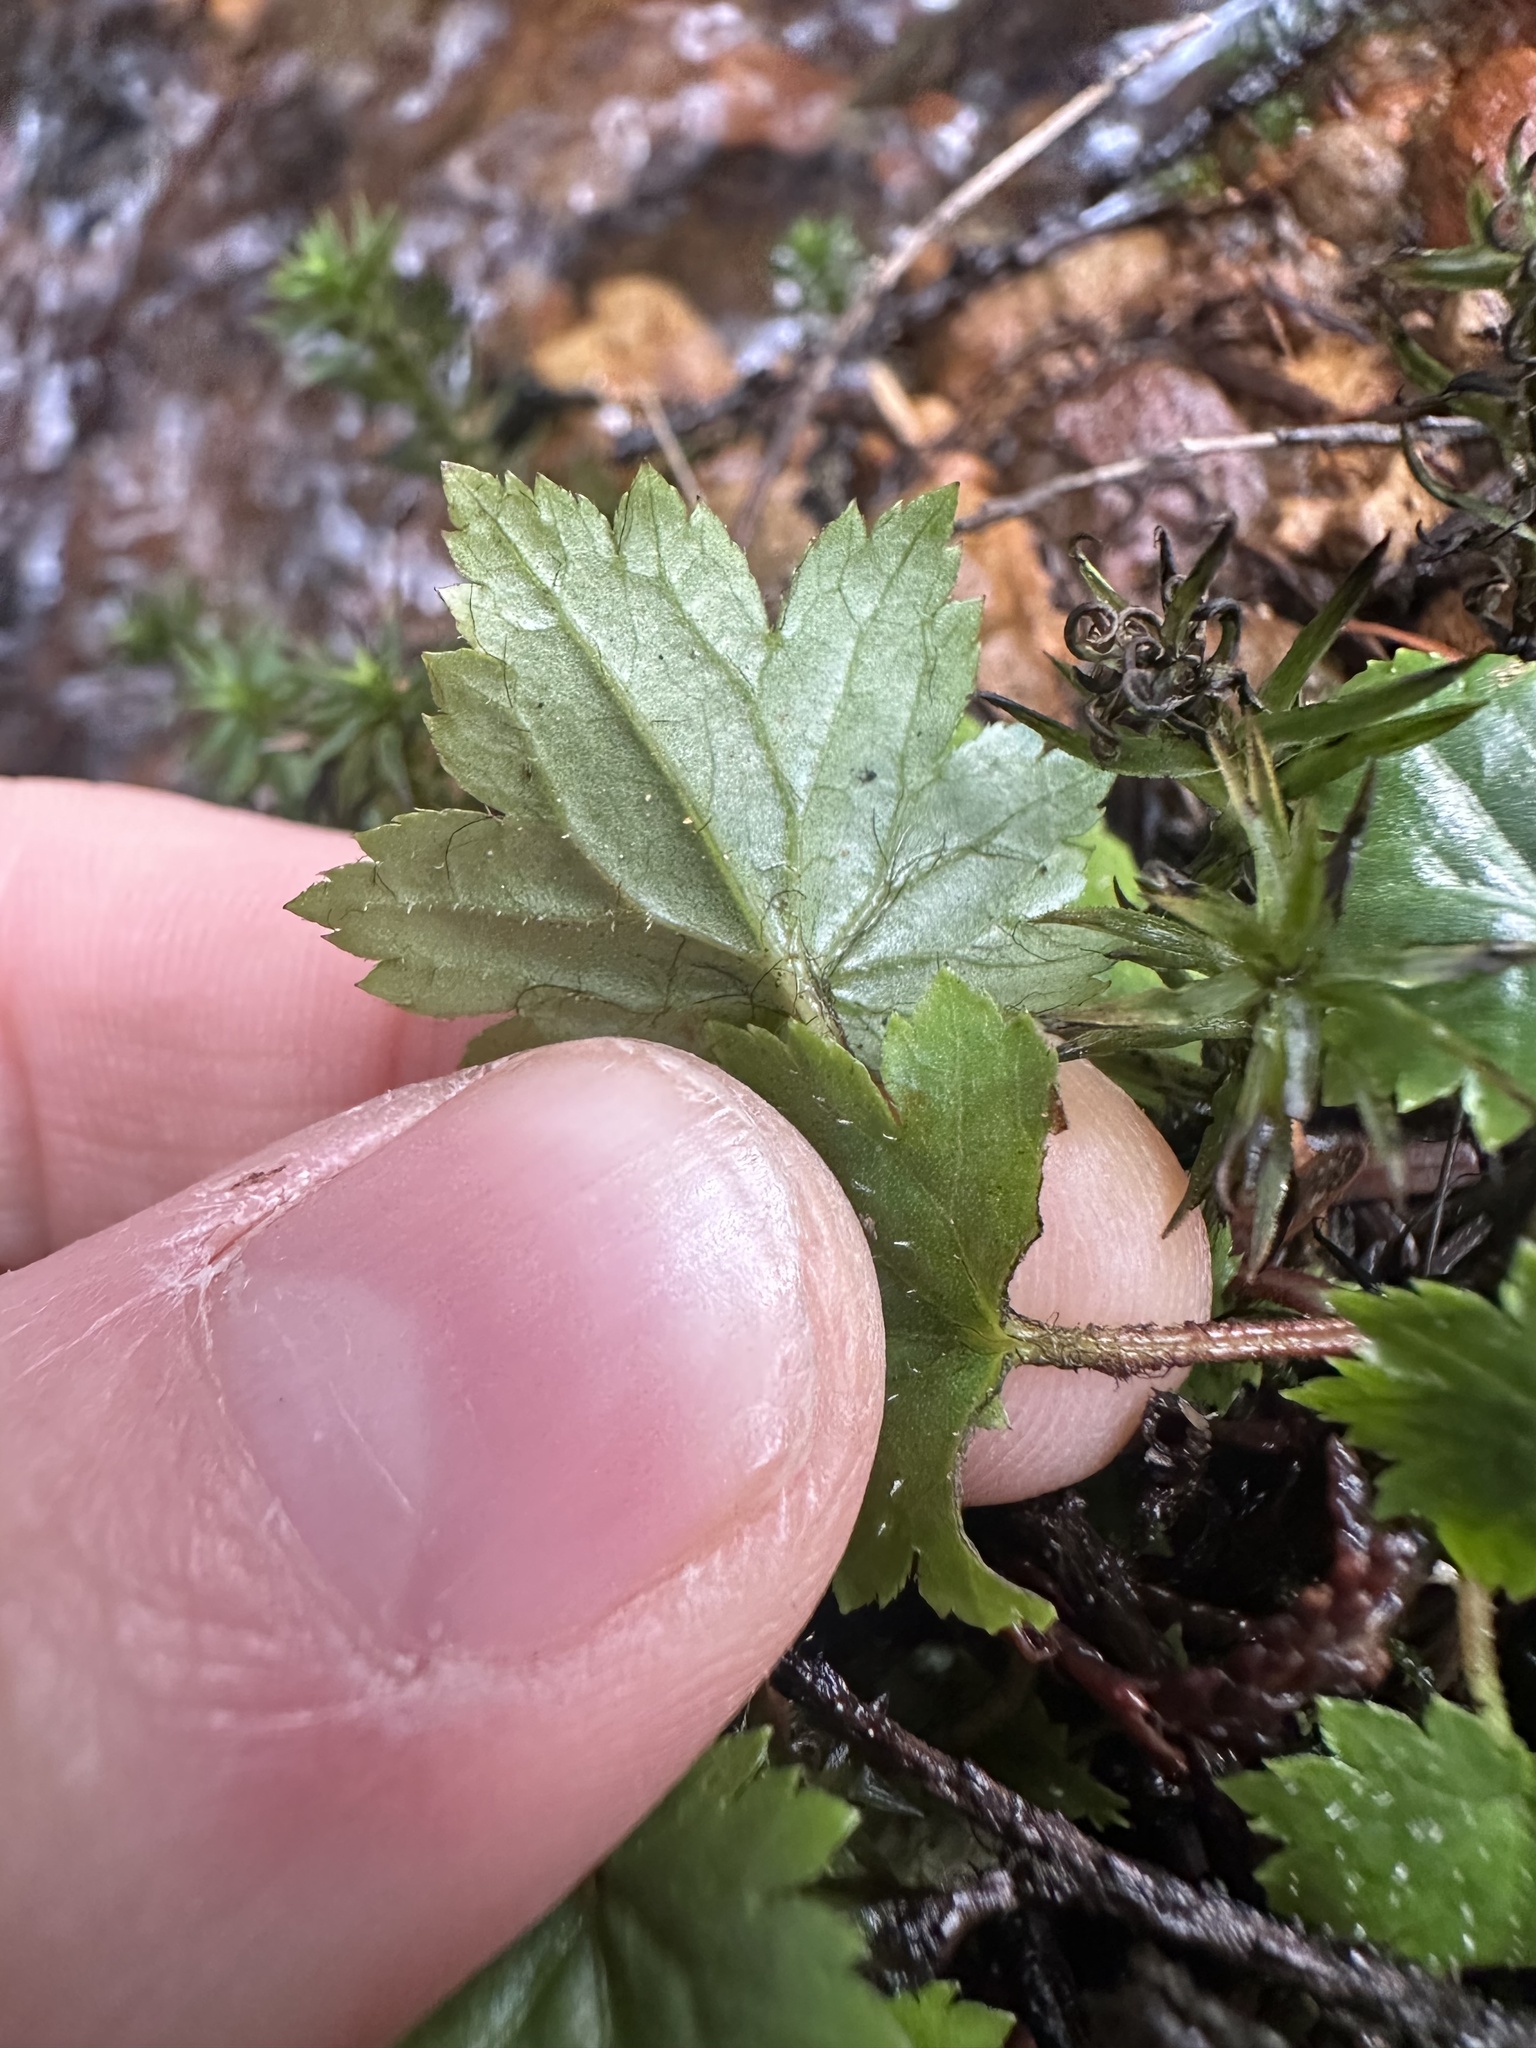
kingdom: Plantae
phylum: Tracheophyta
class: Magnoliopsida
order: Saxifragales
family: Saxifragaceae
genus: Boykinia
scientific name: Boykinia occidentalis
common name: Coast boykinia
